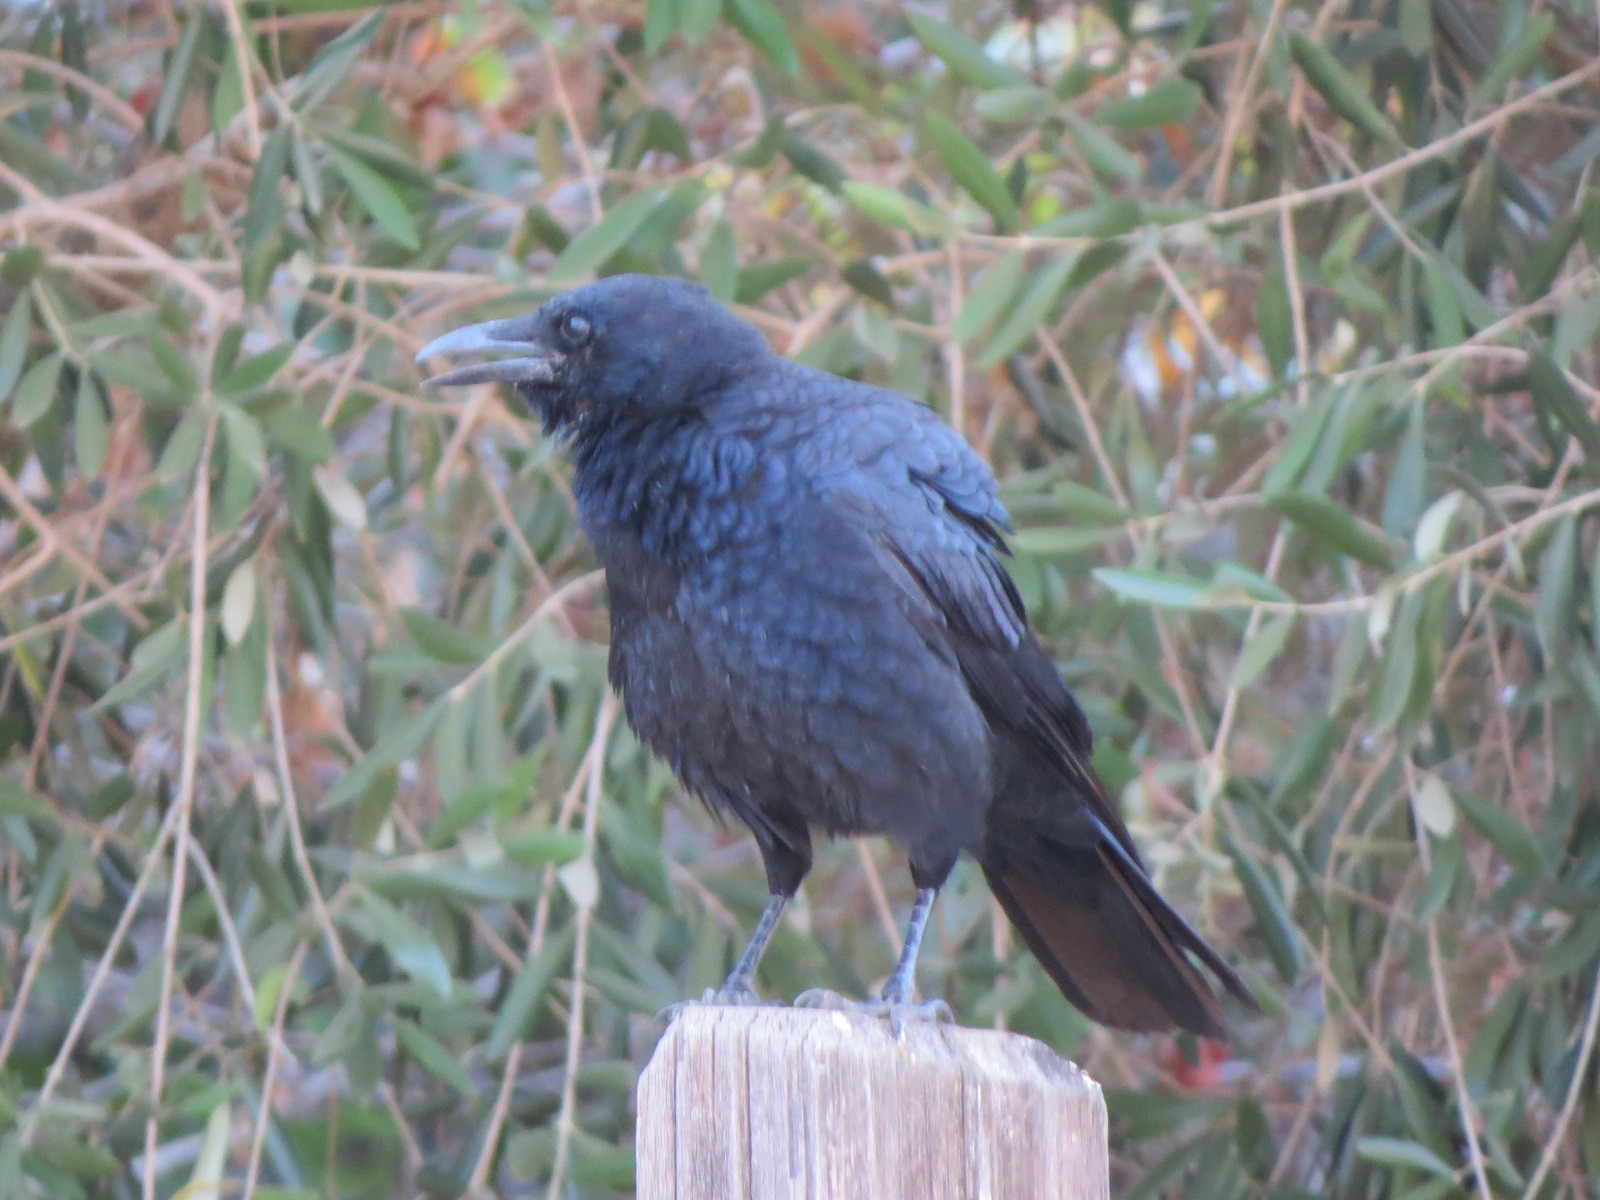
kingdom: Animalia
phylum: Chordata
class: Aves
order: Passeriformes
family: Corvidae
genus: Corvus
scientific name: Corvus brachyrhynchos
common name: American crow
